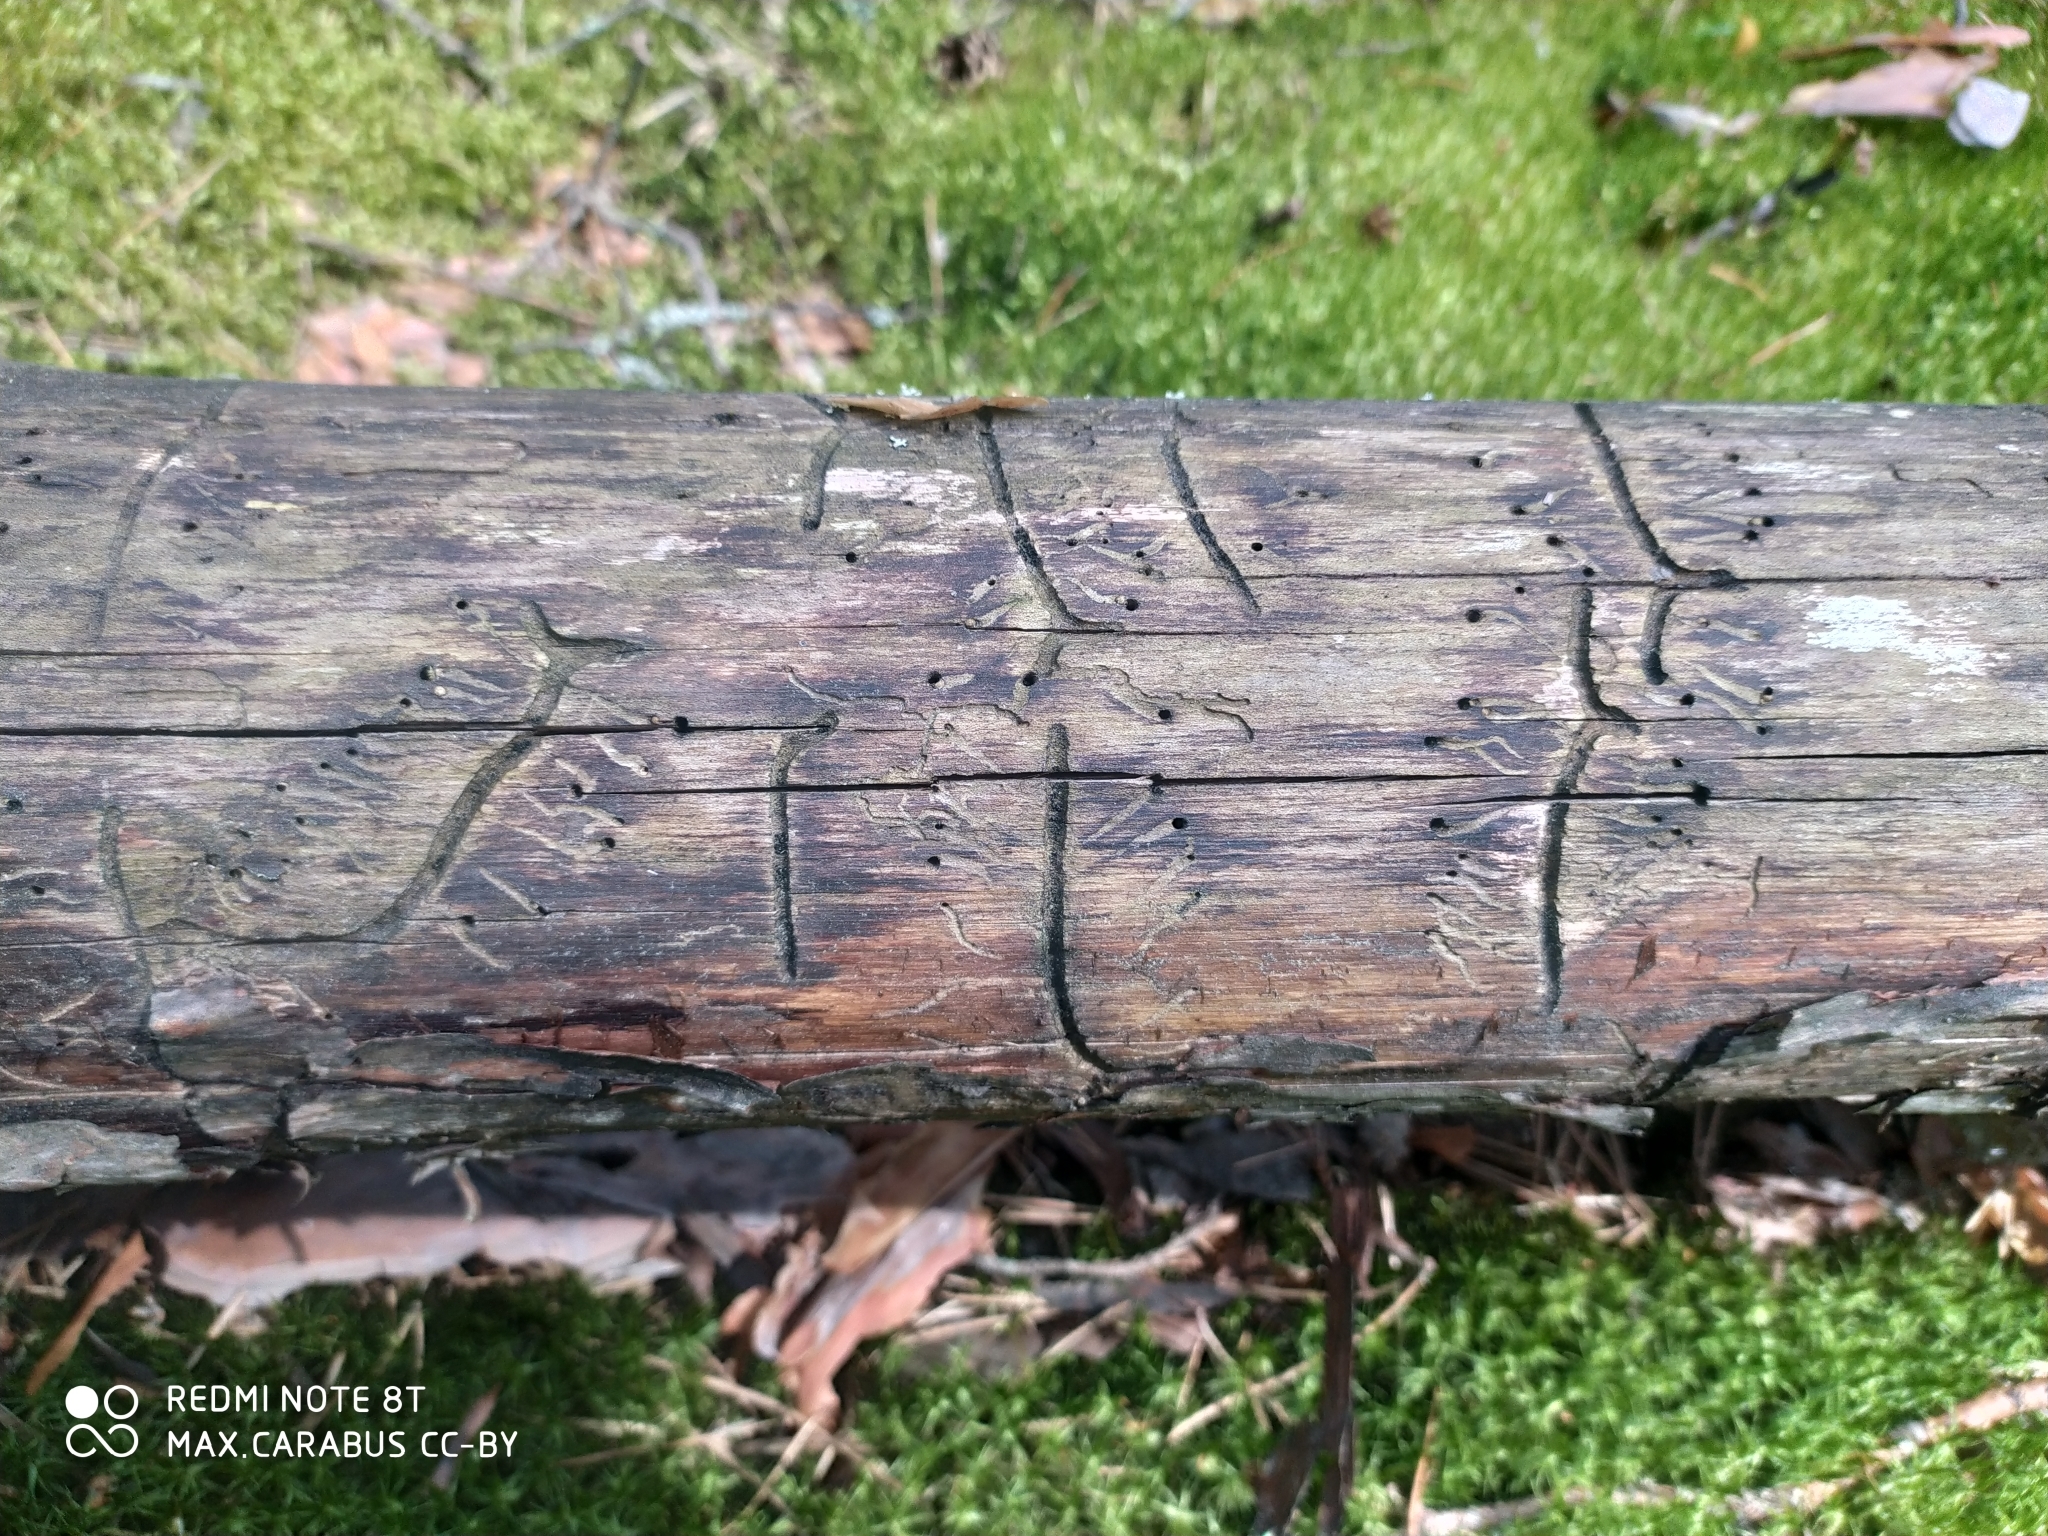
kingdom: Animalia
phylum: Arthropoda
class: Insecta
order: Coleoptera
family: Curculionidae
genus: Tomicus
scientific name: Tomicus minor
